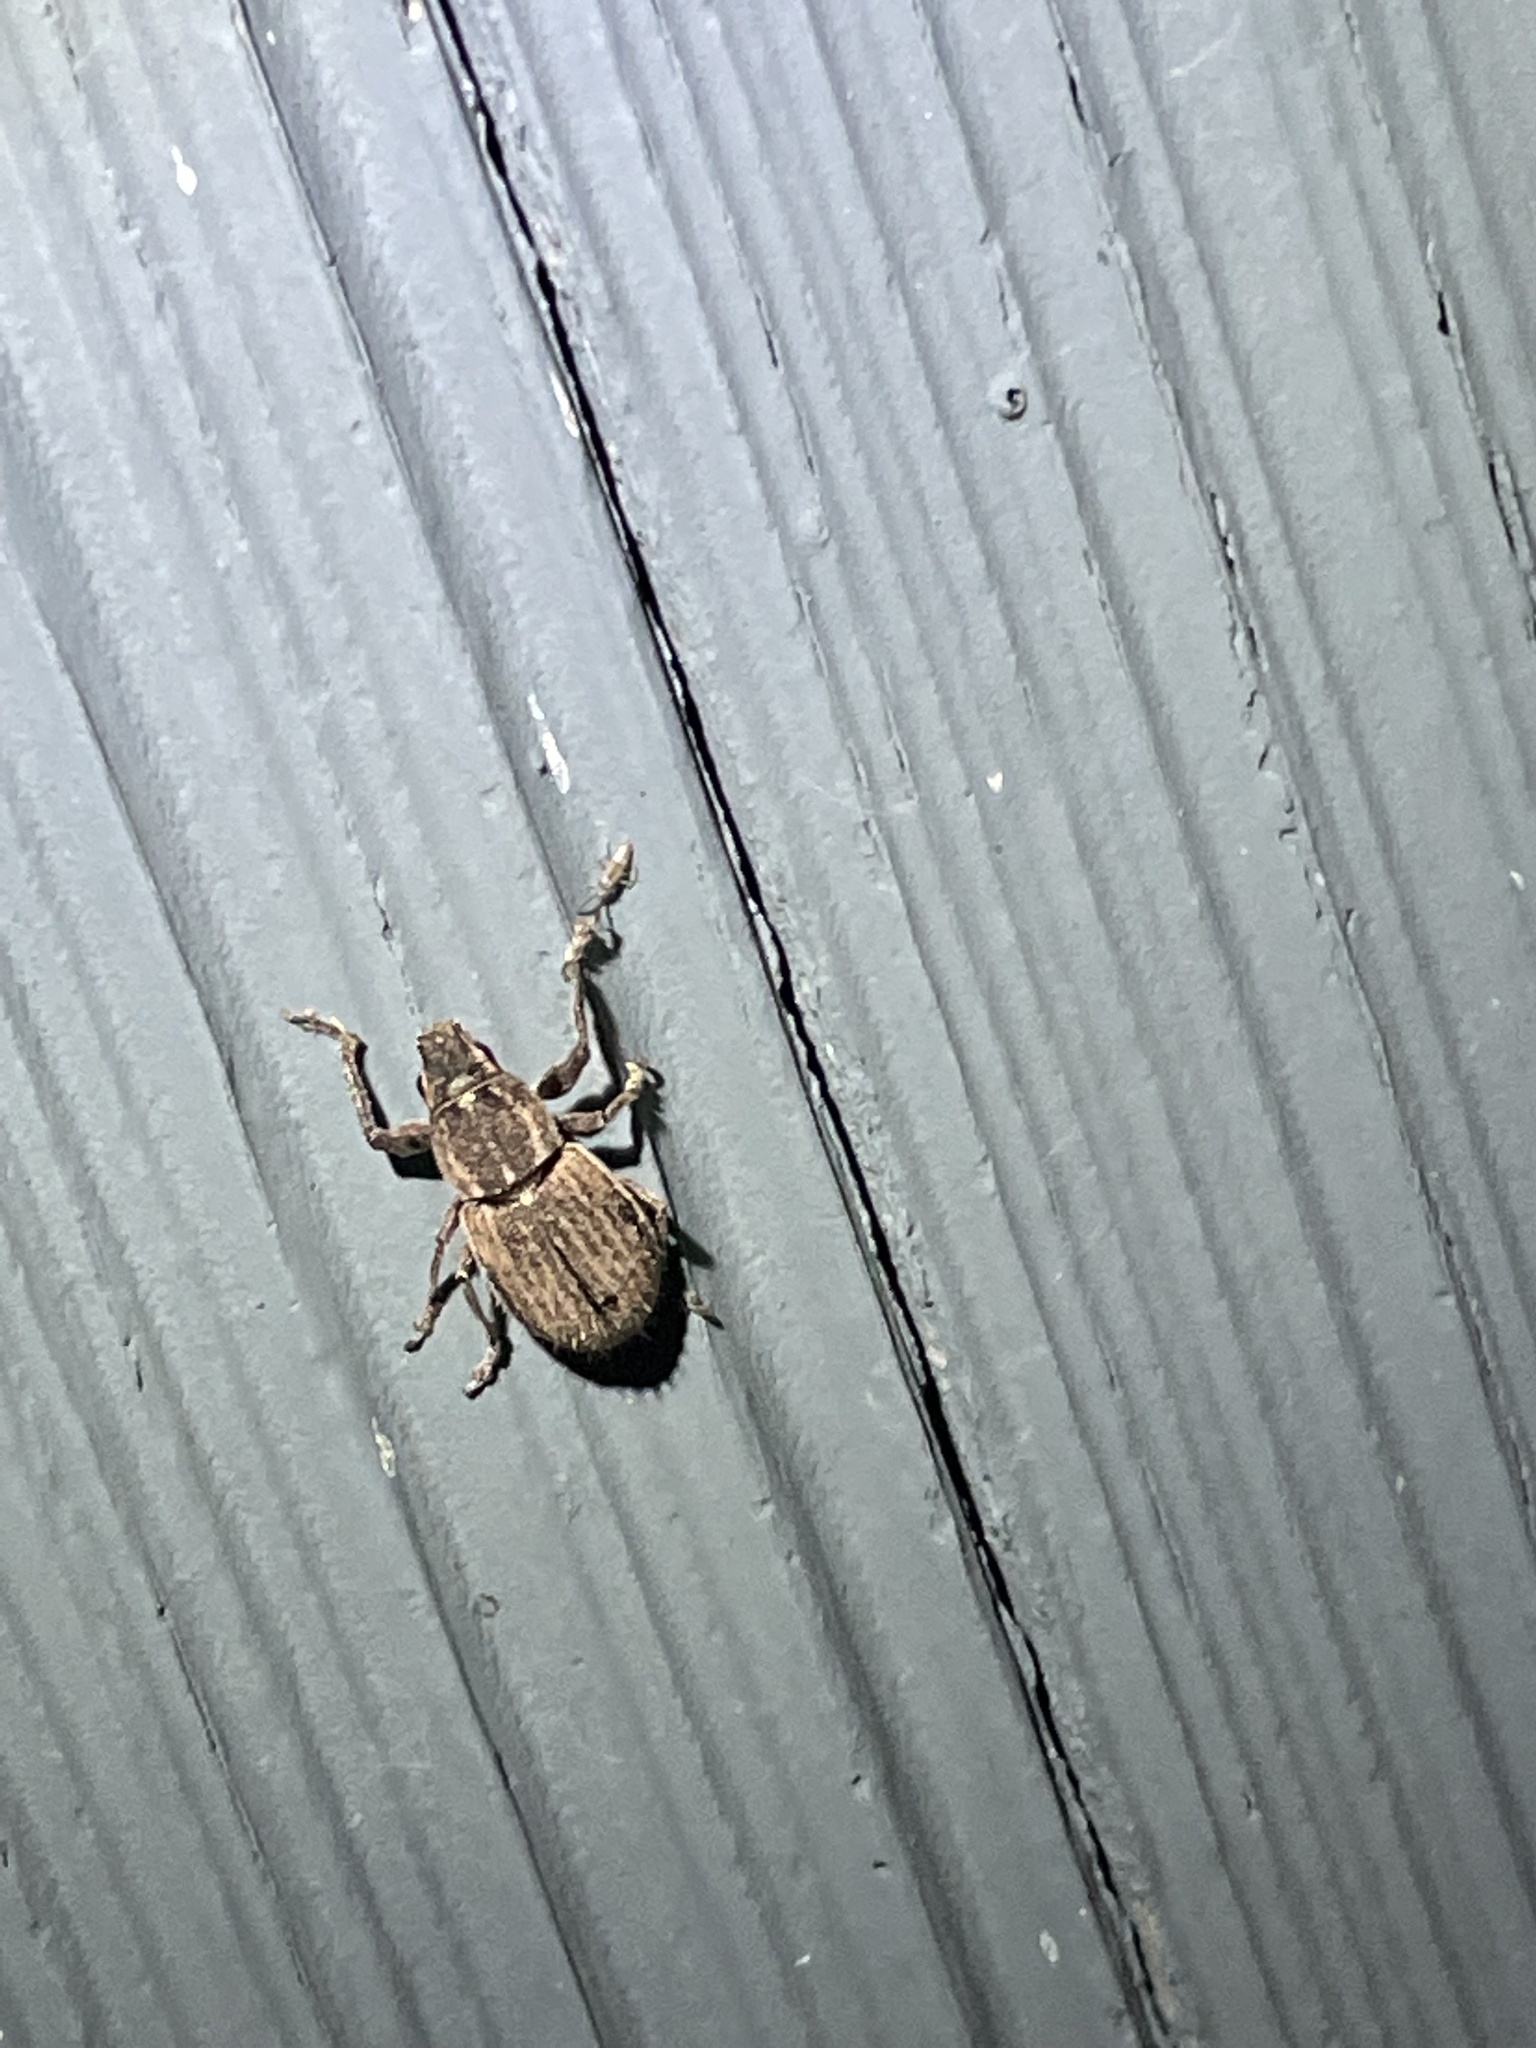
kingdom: Animalia
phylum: Arthropoda
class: Insecta
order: Coleoptera
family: Curculionidae
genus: Naupactus
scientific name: Naupactus leucoloma
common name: Whitefringed beetle
